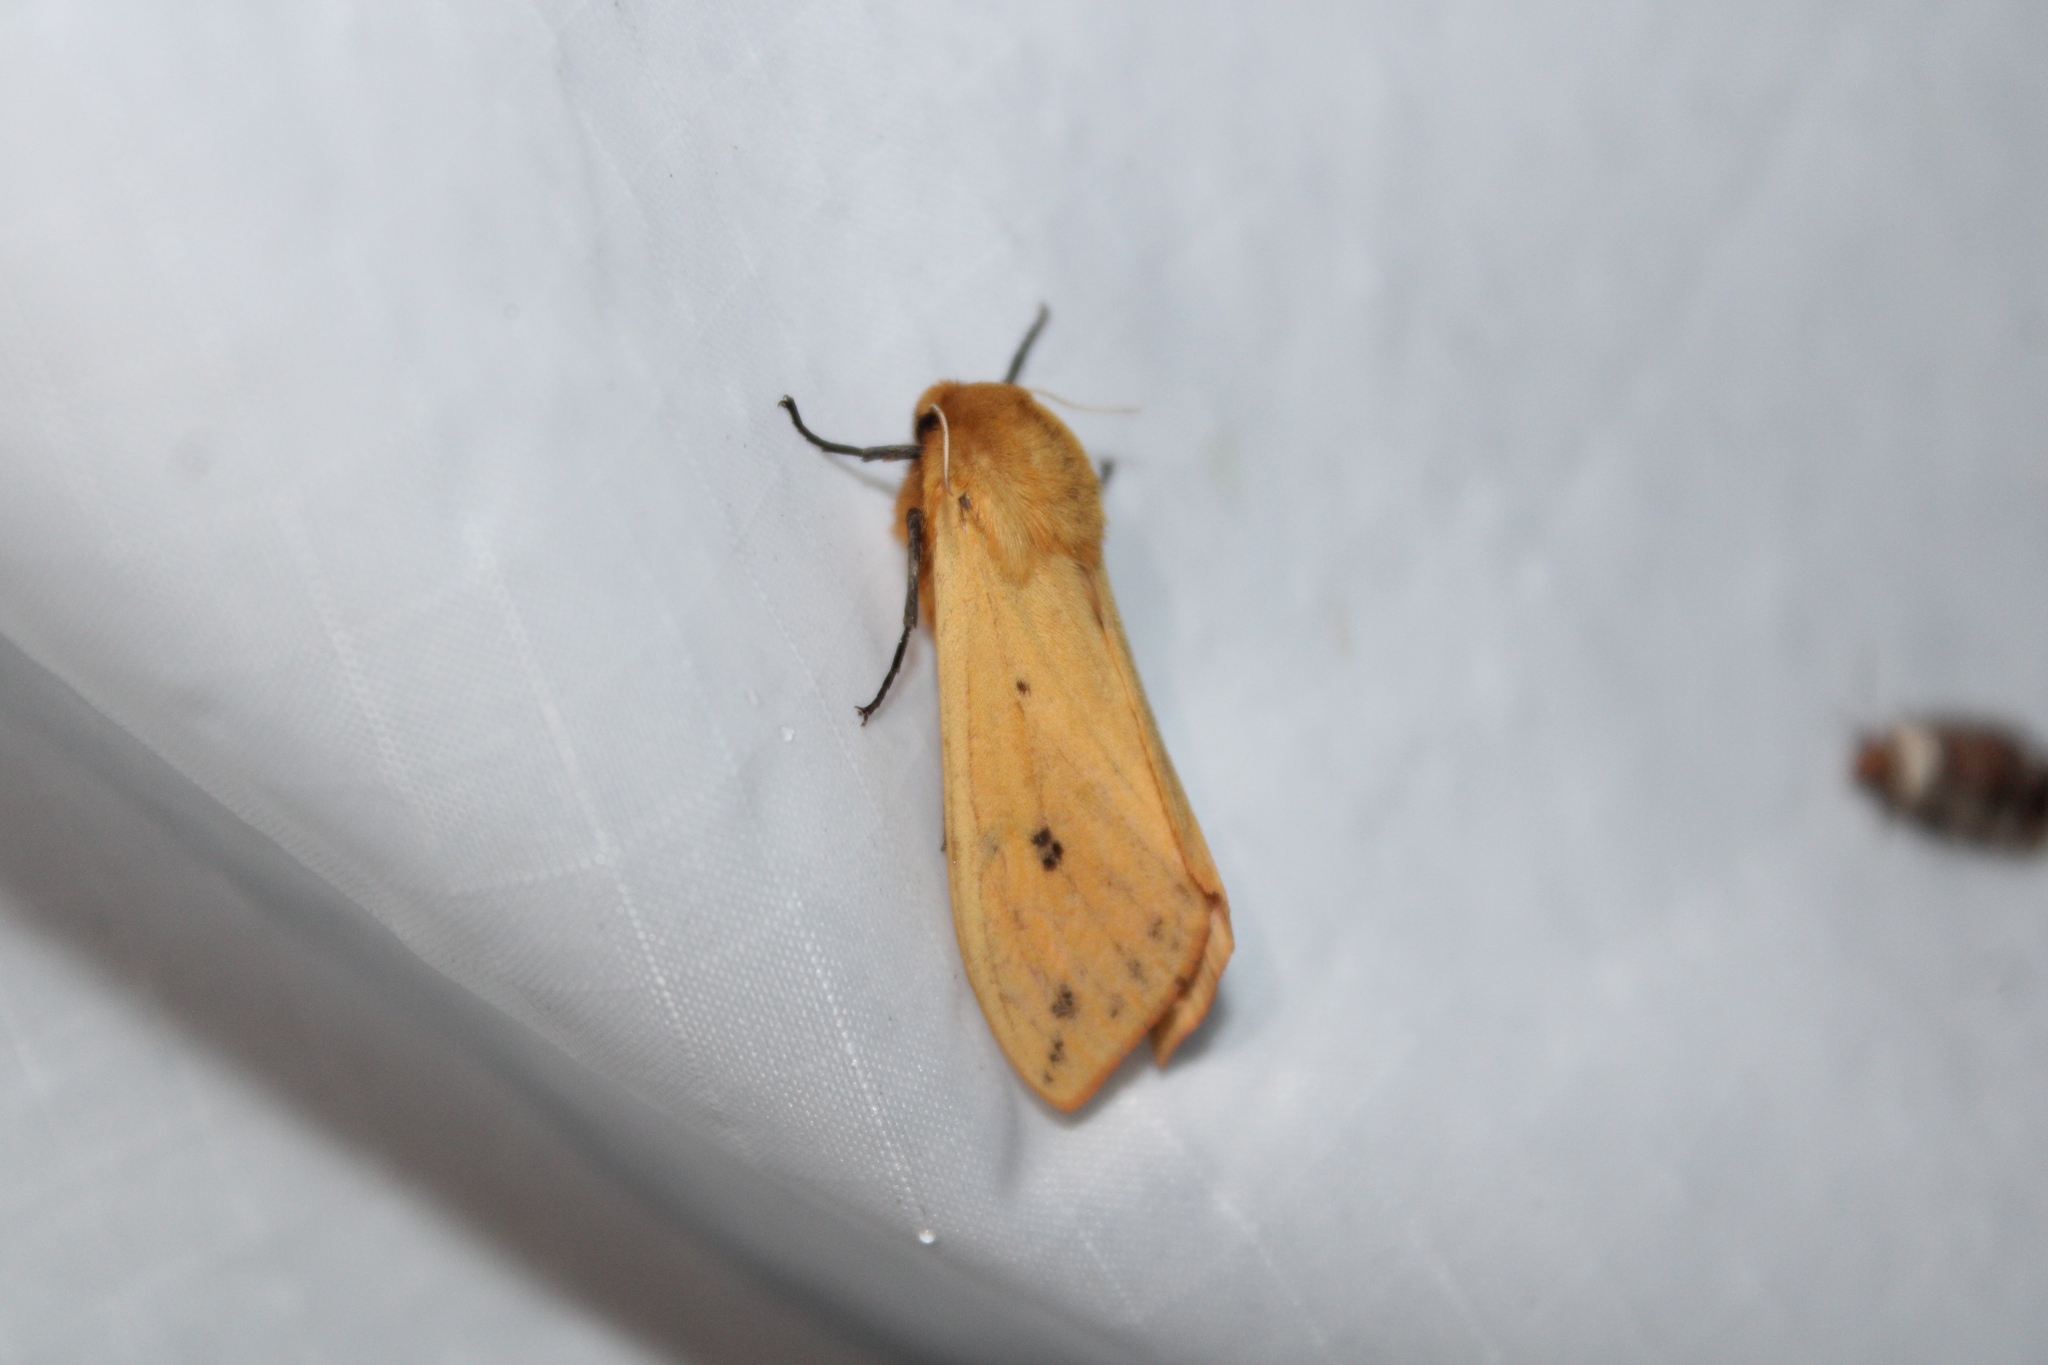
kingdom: Animalia
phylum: Arthropoda
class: Insecta
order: Lepidoptera
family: Erebidae
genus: Pyrrharctia
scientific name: Pyrrharctia isabella
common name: Isabella tiger moth
